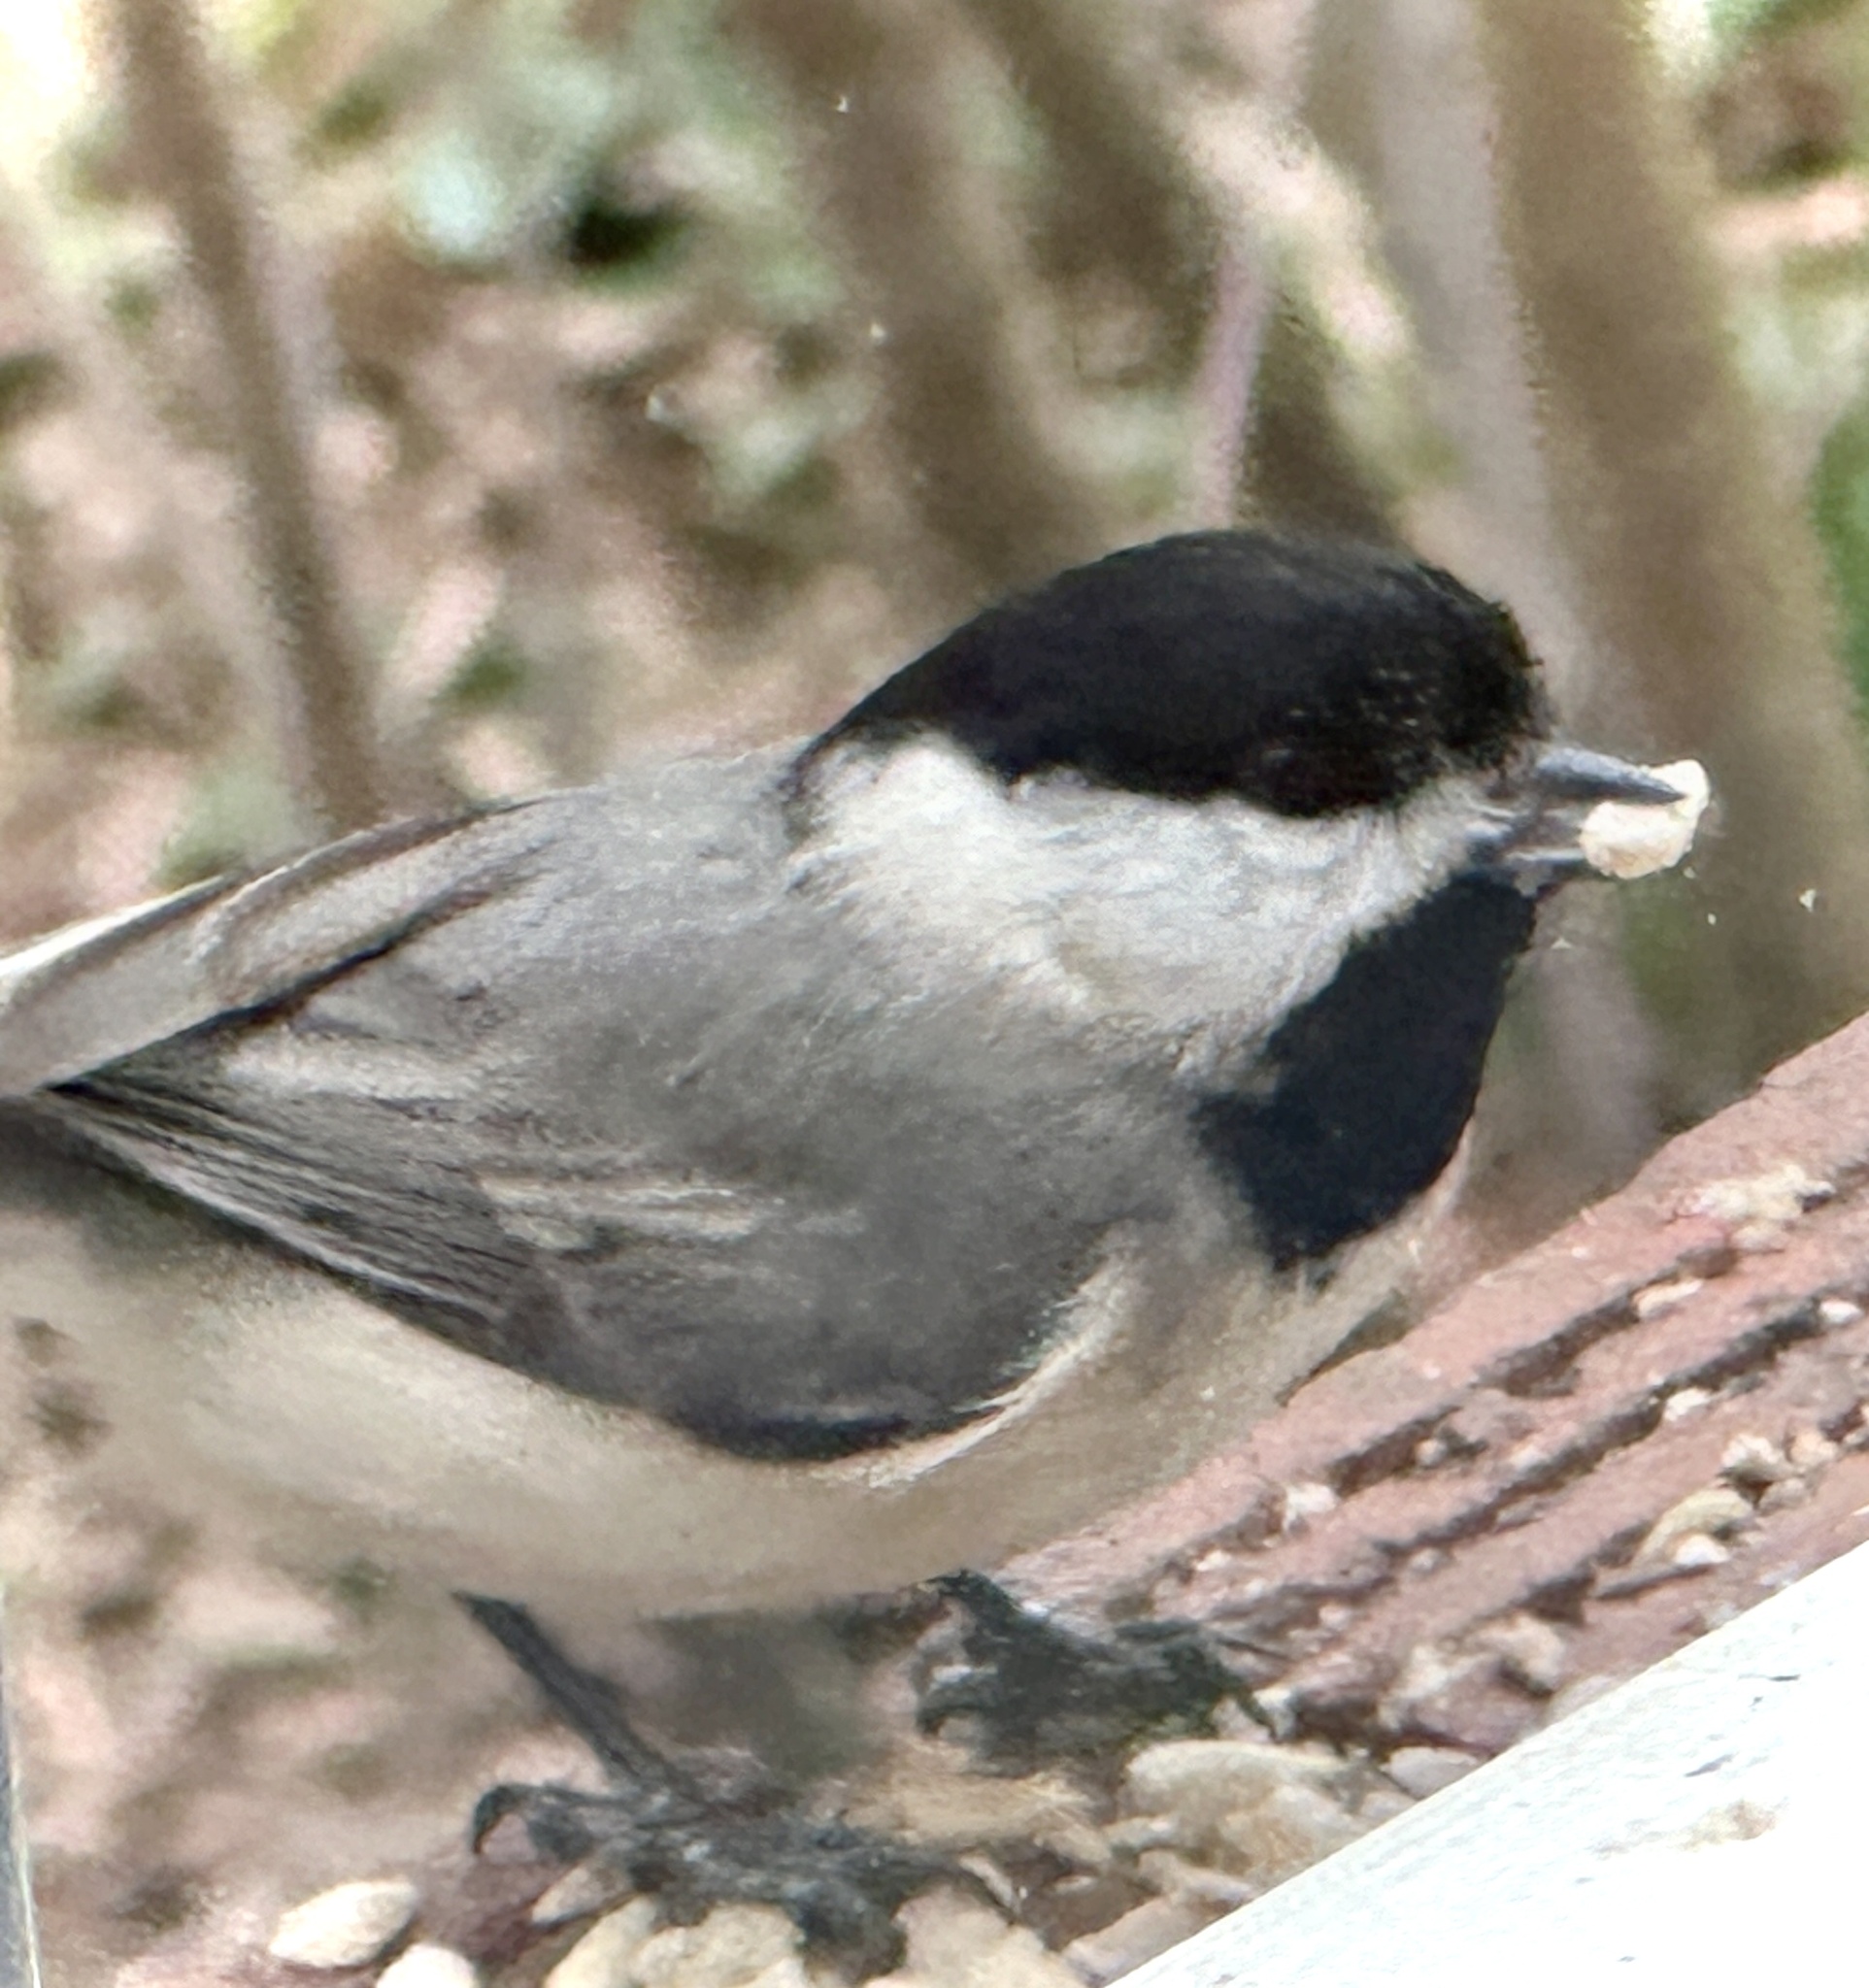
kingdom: Animalia
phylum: Chordata
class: Aves
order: Passeriformes
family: Paridae
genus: Poecile
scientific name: Poecile carolinensis
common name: Carolina chickadee
